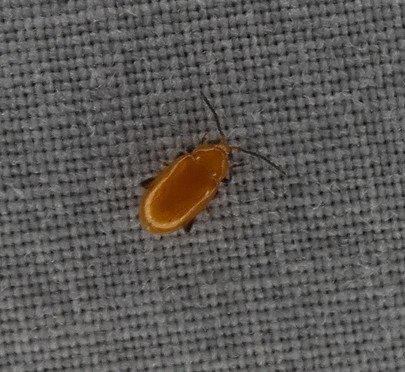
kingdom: Animalia
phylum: Arthropoda
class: Insecta
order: Coleoptera
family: Chrysomelidae
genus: Parchicola
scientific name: Parchicola tibialis
